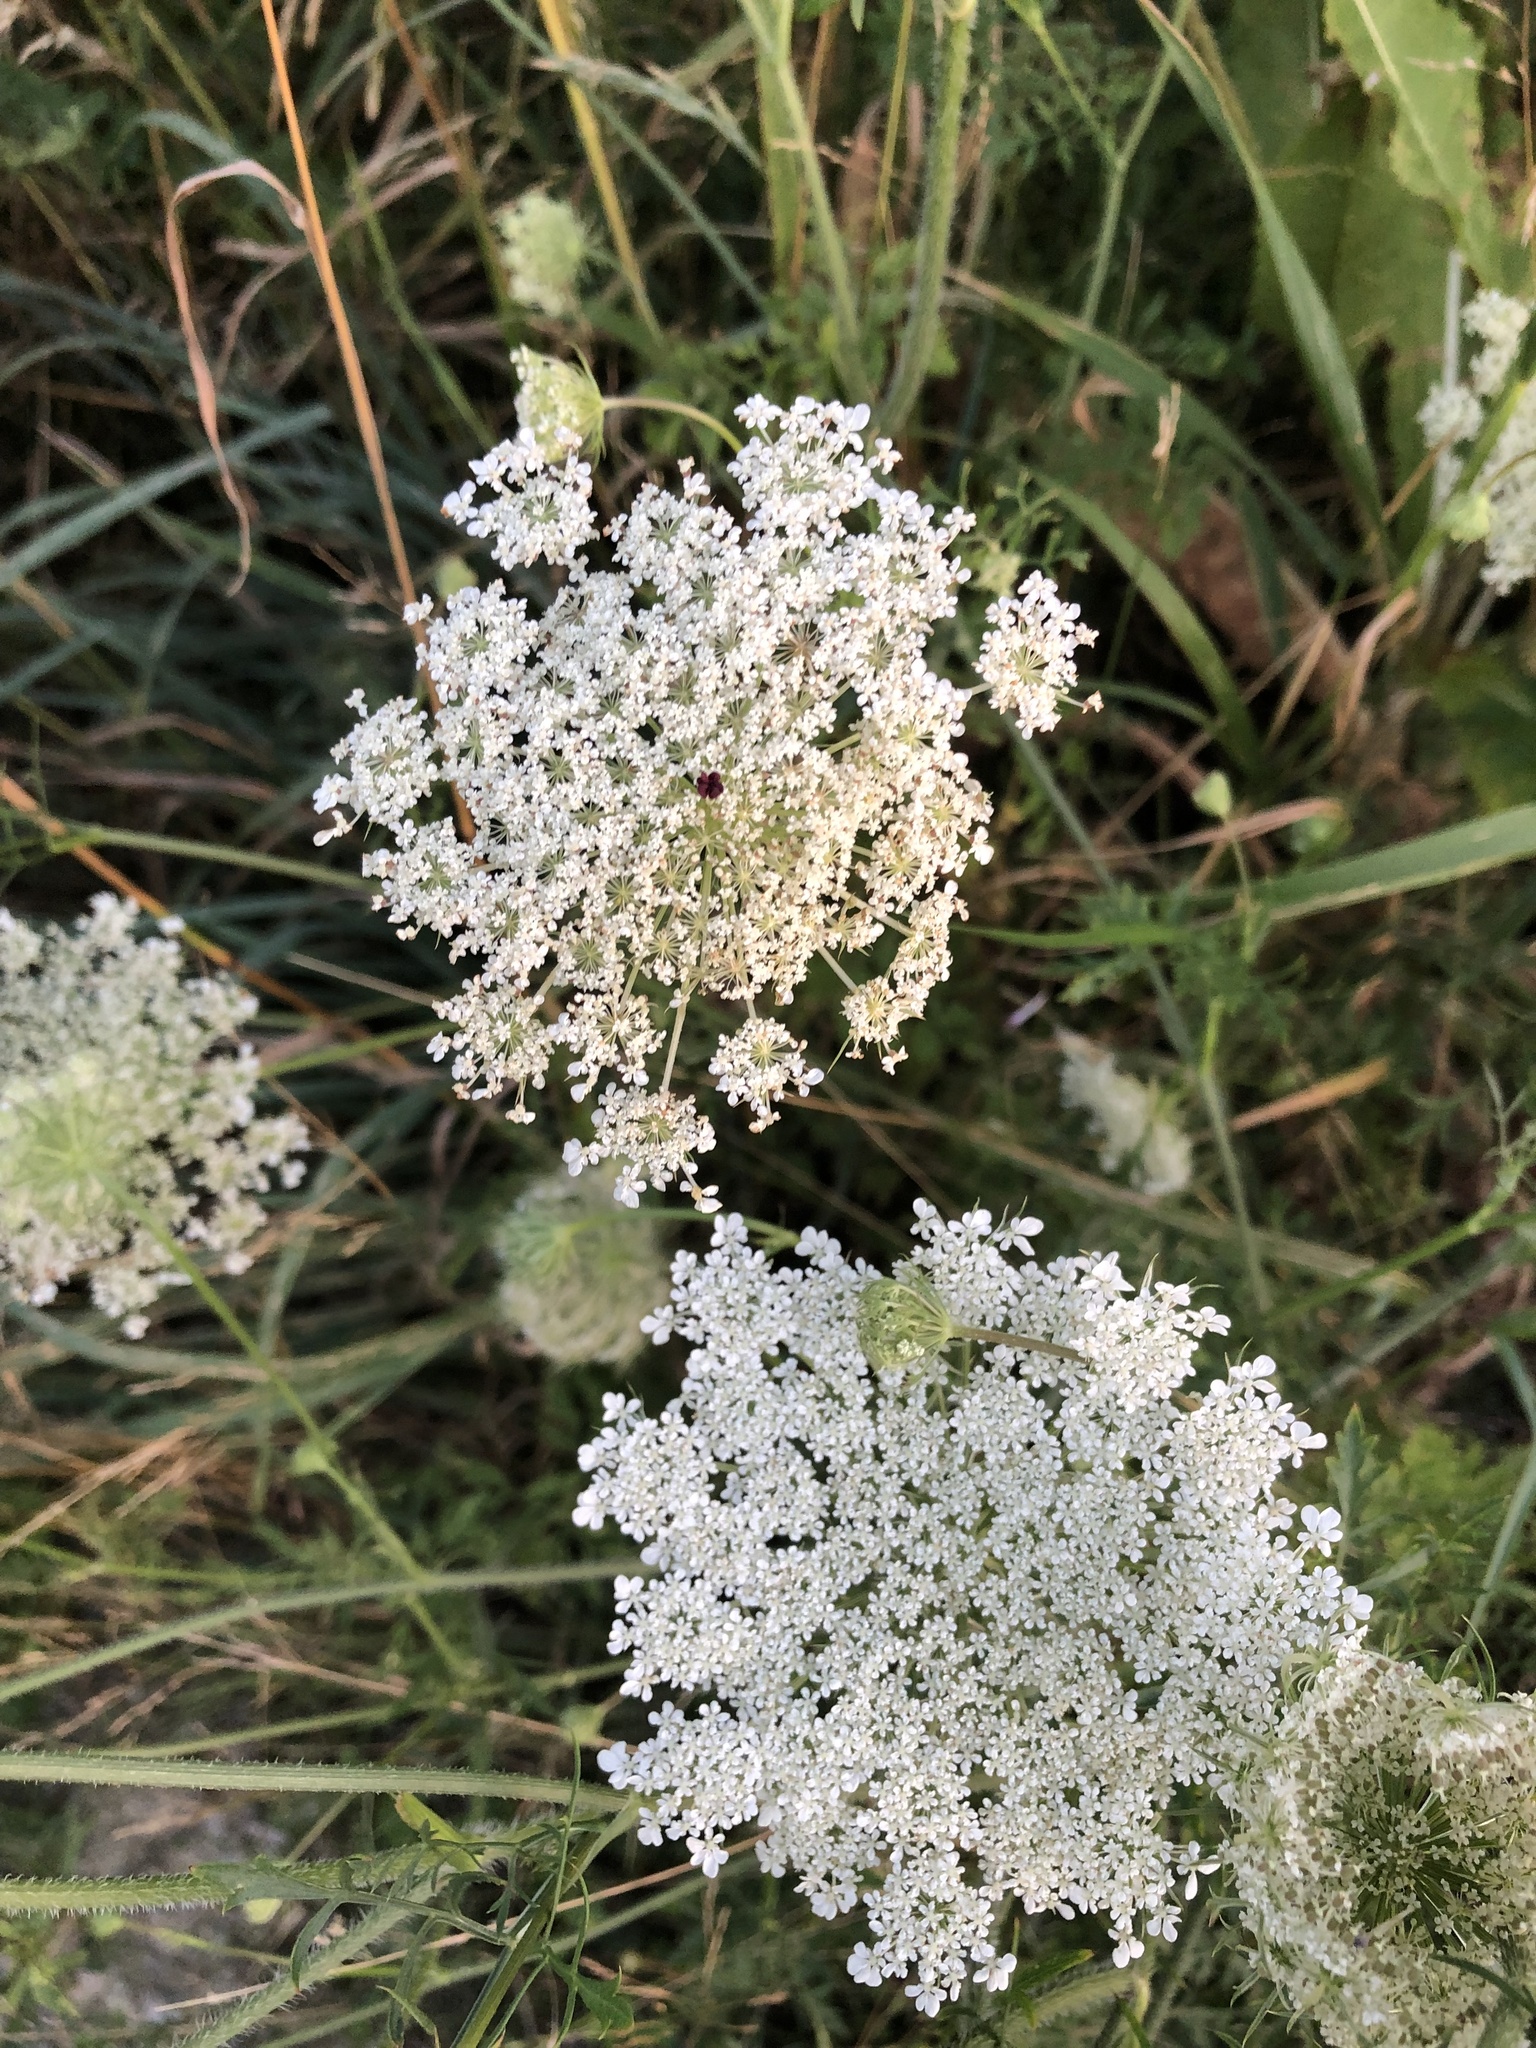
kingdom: Plantae
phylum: Tracheophyta
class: Magnoliopsida
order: Apiales
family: Apiaceae
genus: Daucus
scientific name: Daucus carota
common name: Wild carrot
